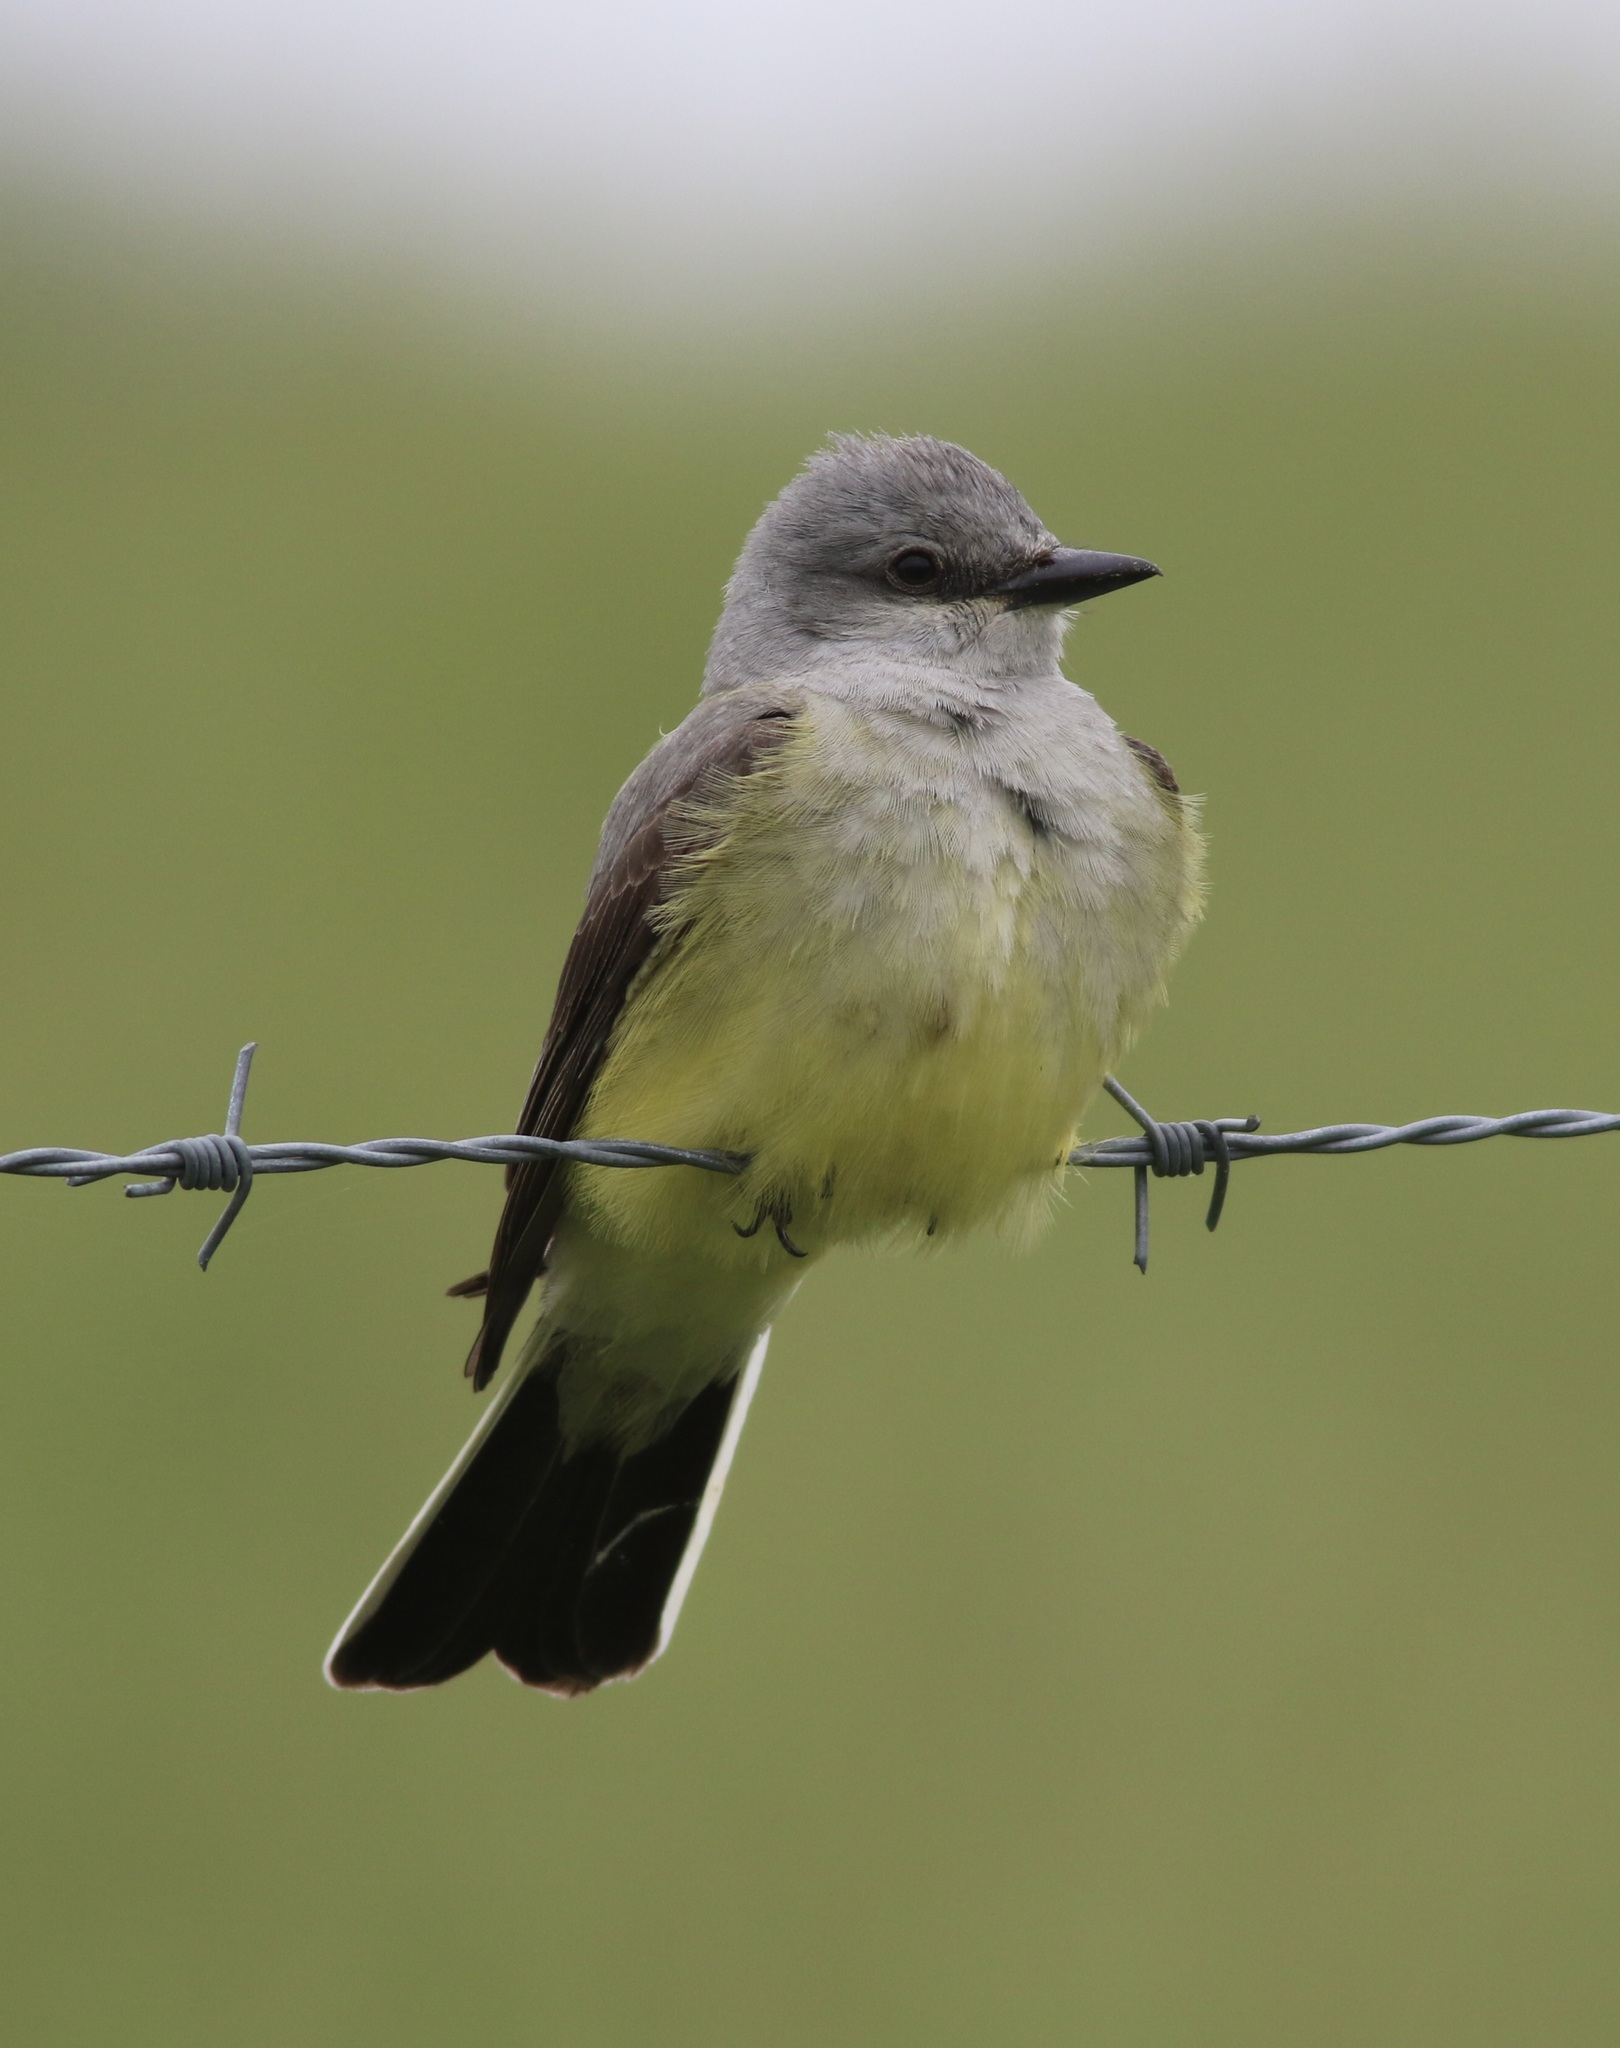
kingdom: Animalia
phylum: Chordata
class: Aves
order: Passeriformes
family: Tyrannidae
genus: Tyrannus
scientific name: Tyrannus verticalis
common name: Western kingbird
